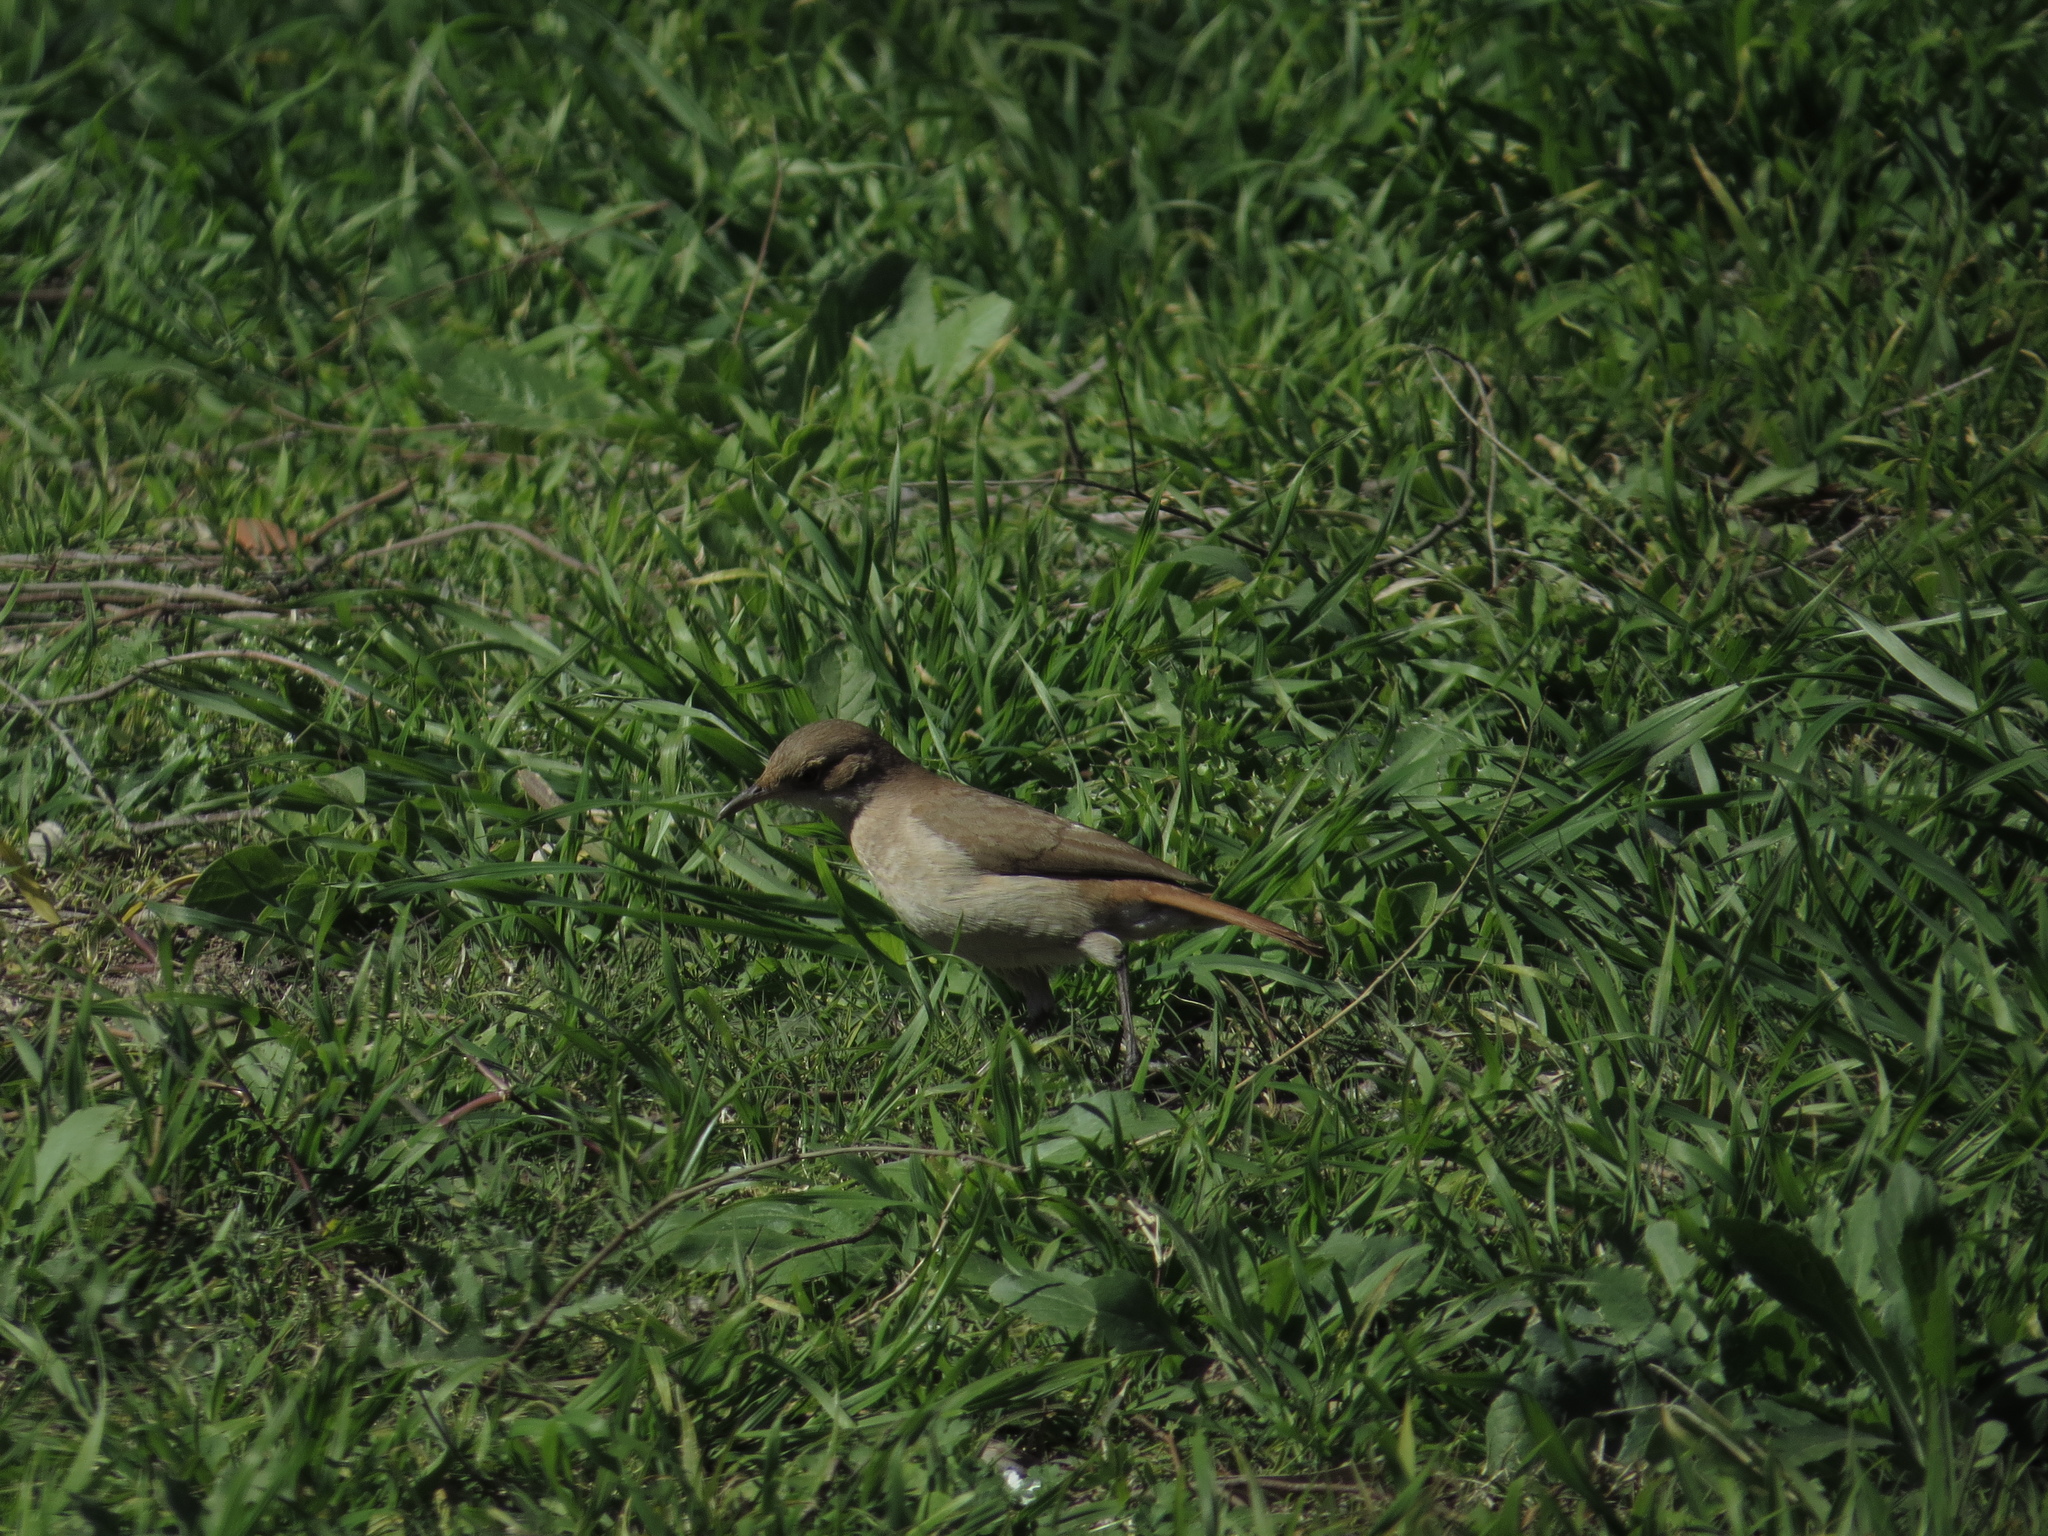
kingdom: Animalia
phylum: Chordata
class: Aves
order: Passeriformes
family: Furnariidae
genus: Furnarius
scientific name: Furnarius rufus
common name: Rufous hornero
